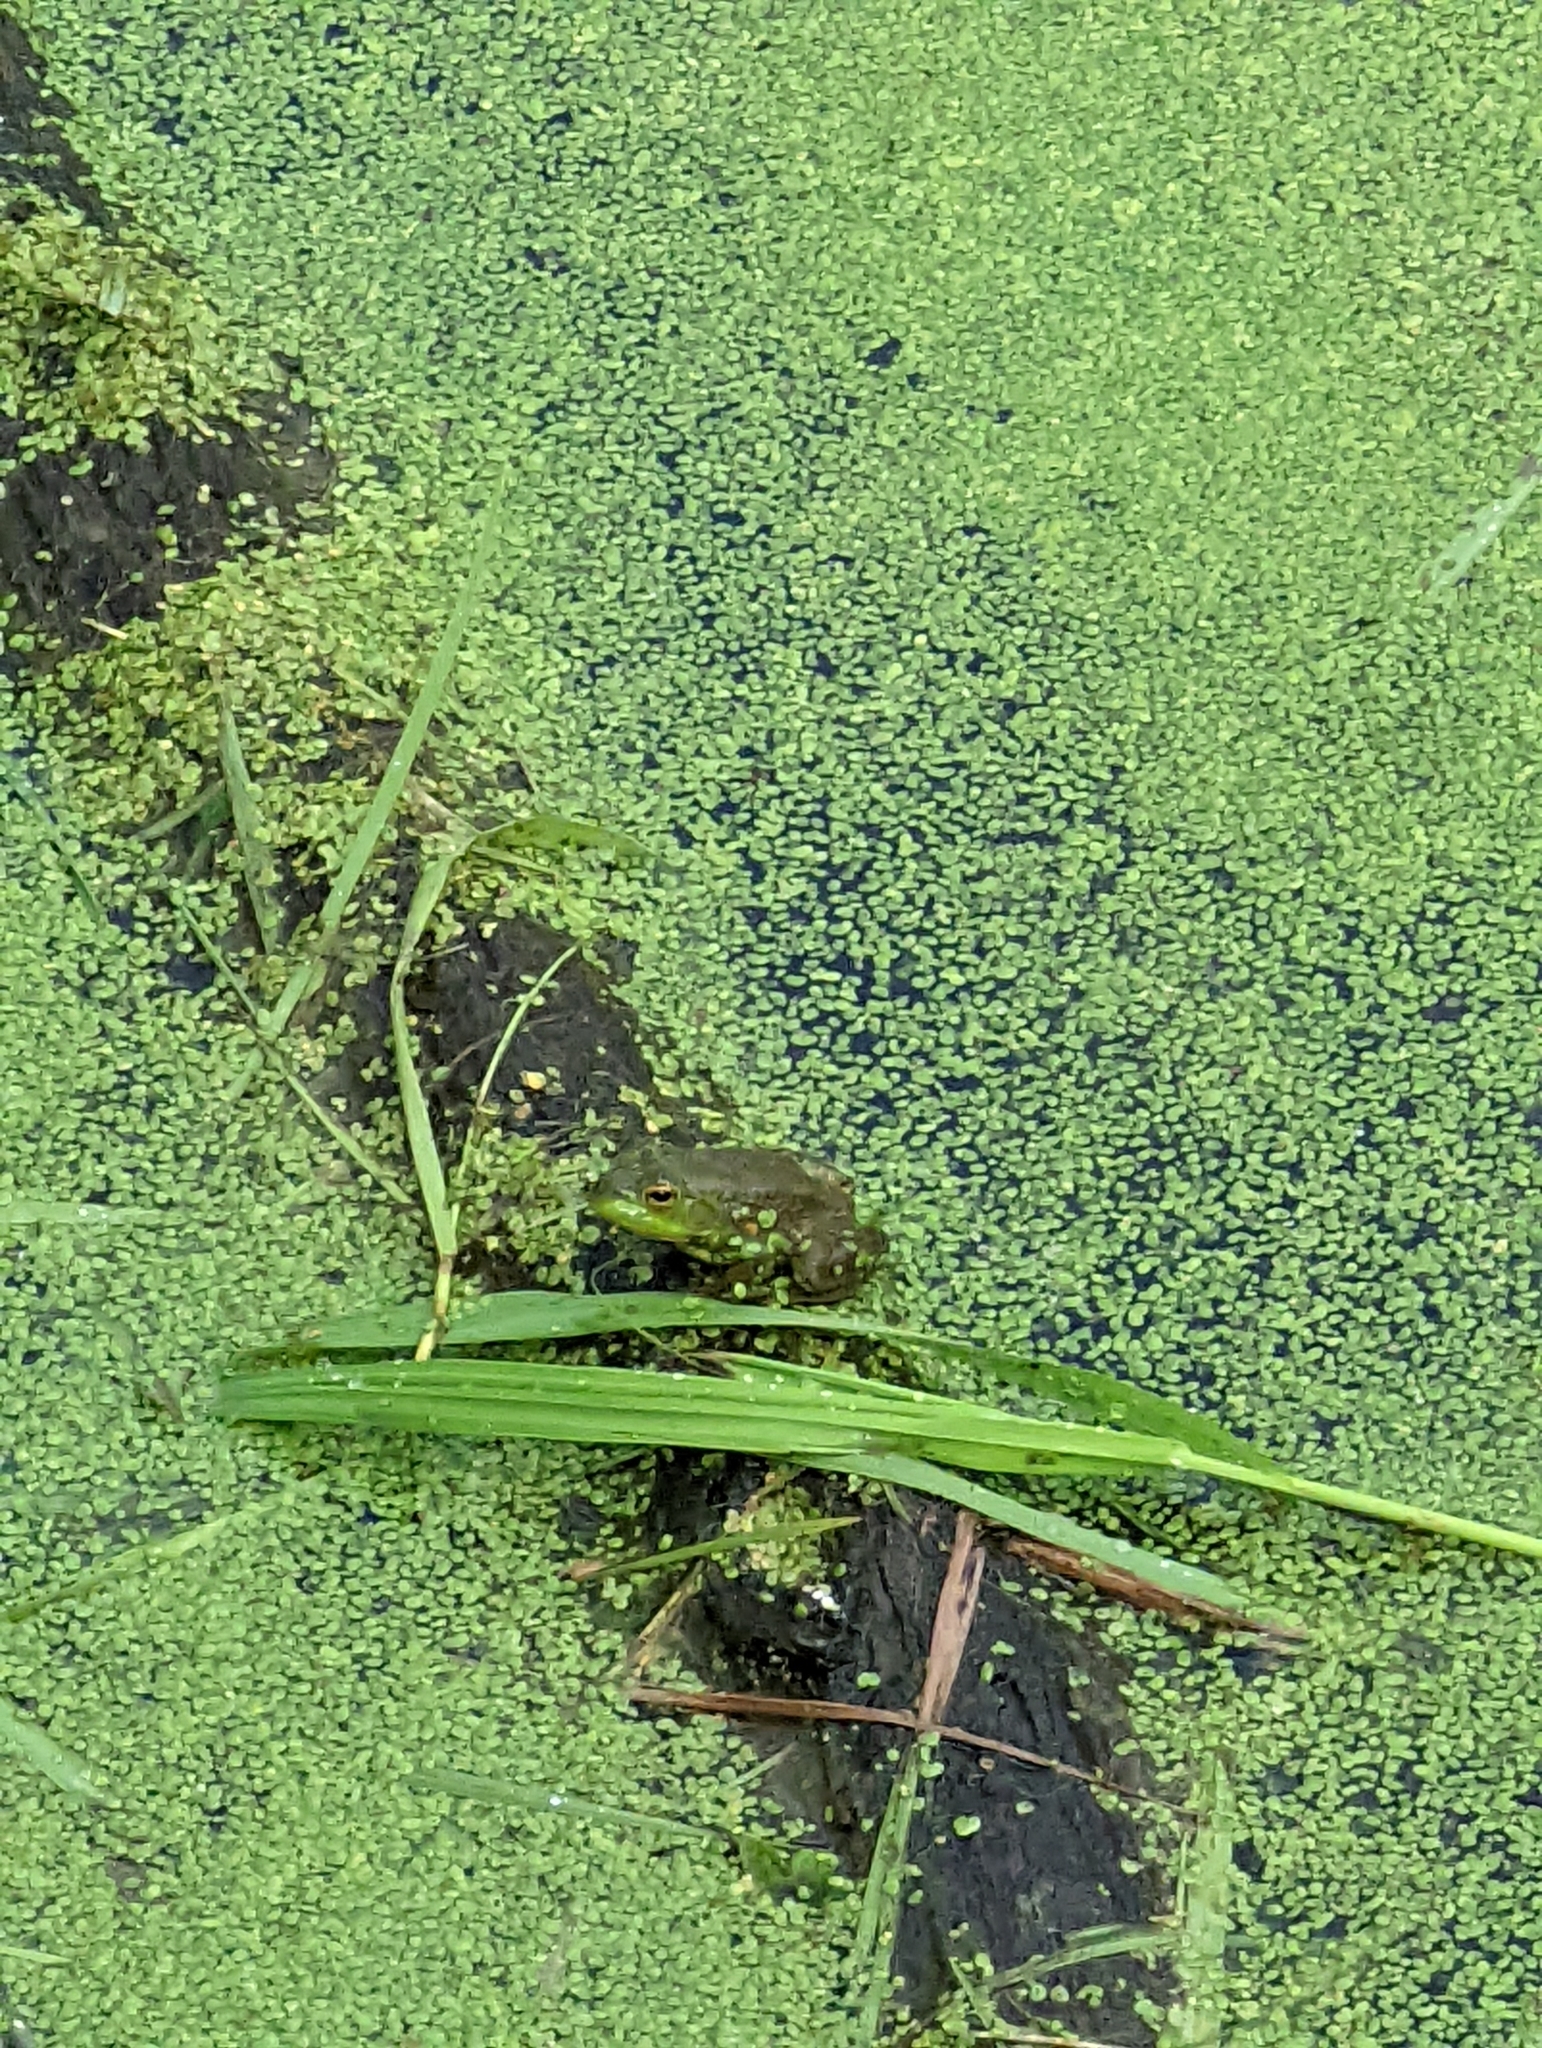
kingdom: Animalia
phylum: Chordata
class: Amphibia
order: Anura
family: Ranidae
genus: Lithobates
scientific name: Lithobates catesbeianus
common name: American bullfrog
